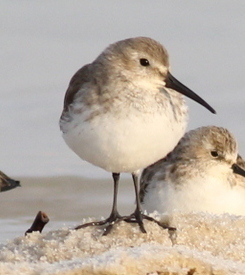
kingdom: Animalia
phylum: Chordata
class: Aves
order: Charadriiformes
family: Scolopacidae
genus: Calidris
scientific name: Calidris alpina
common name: Dunlin
